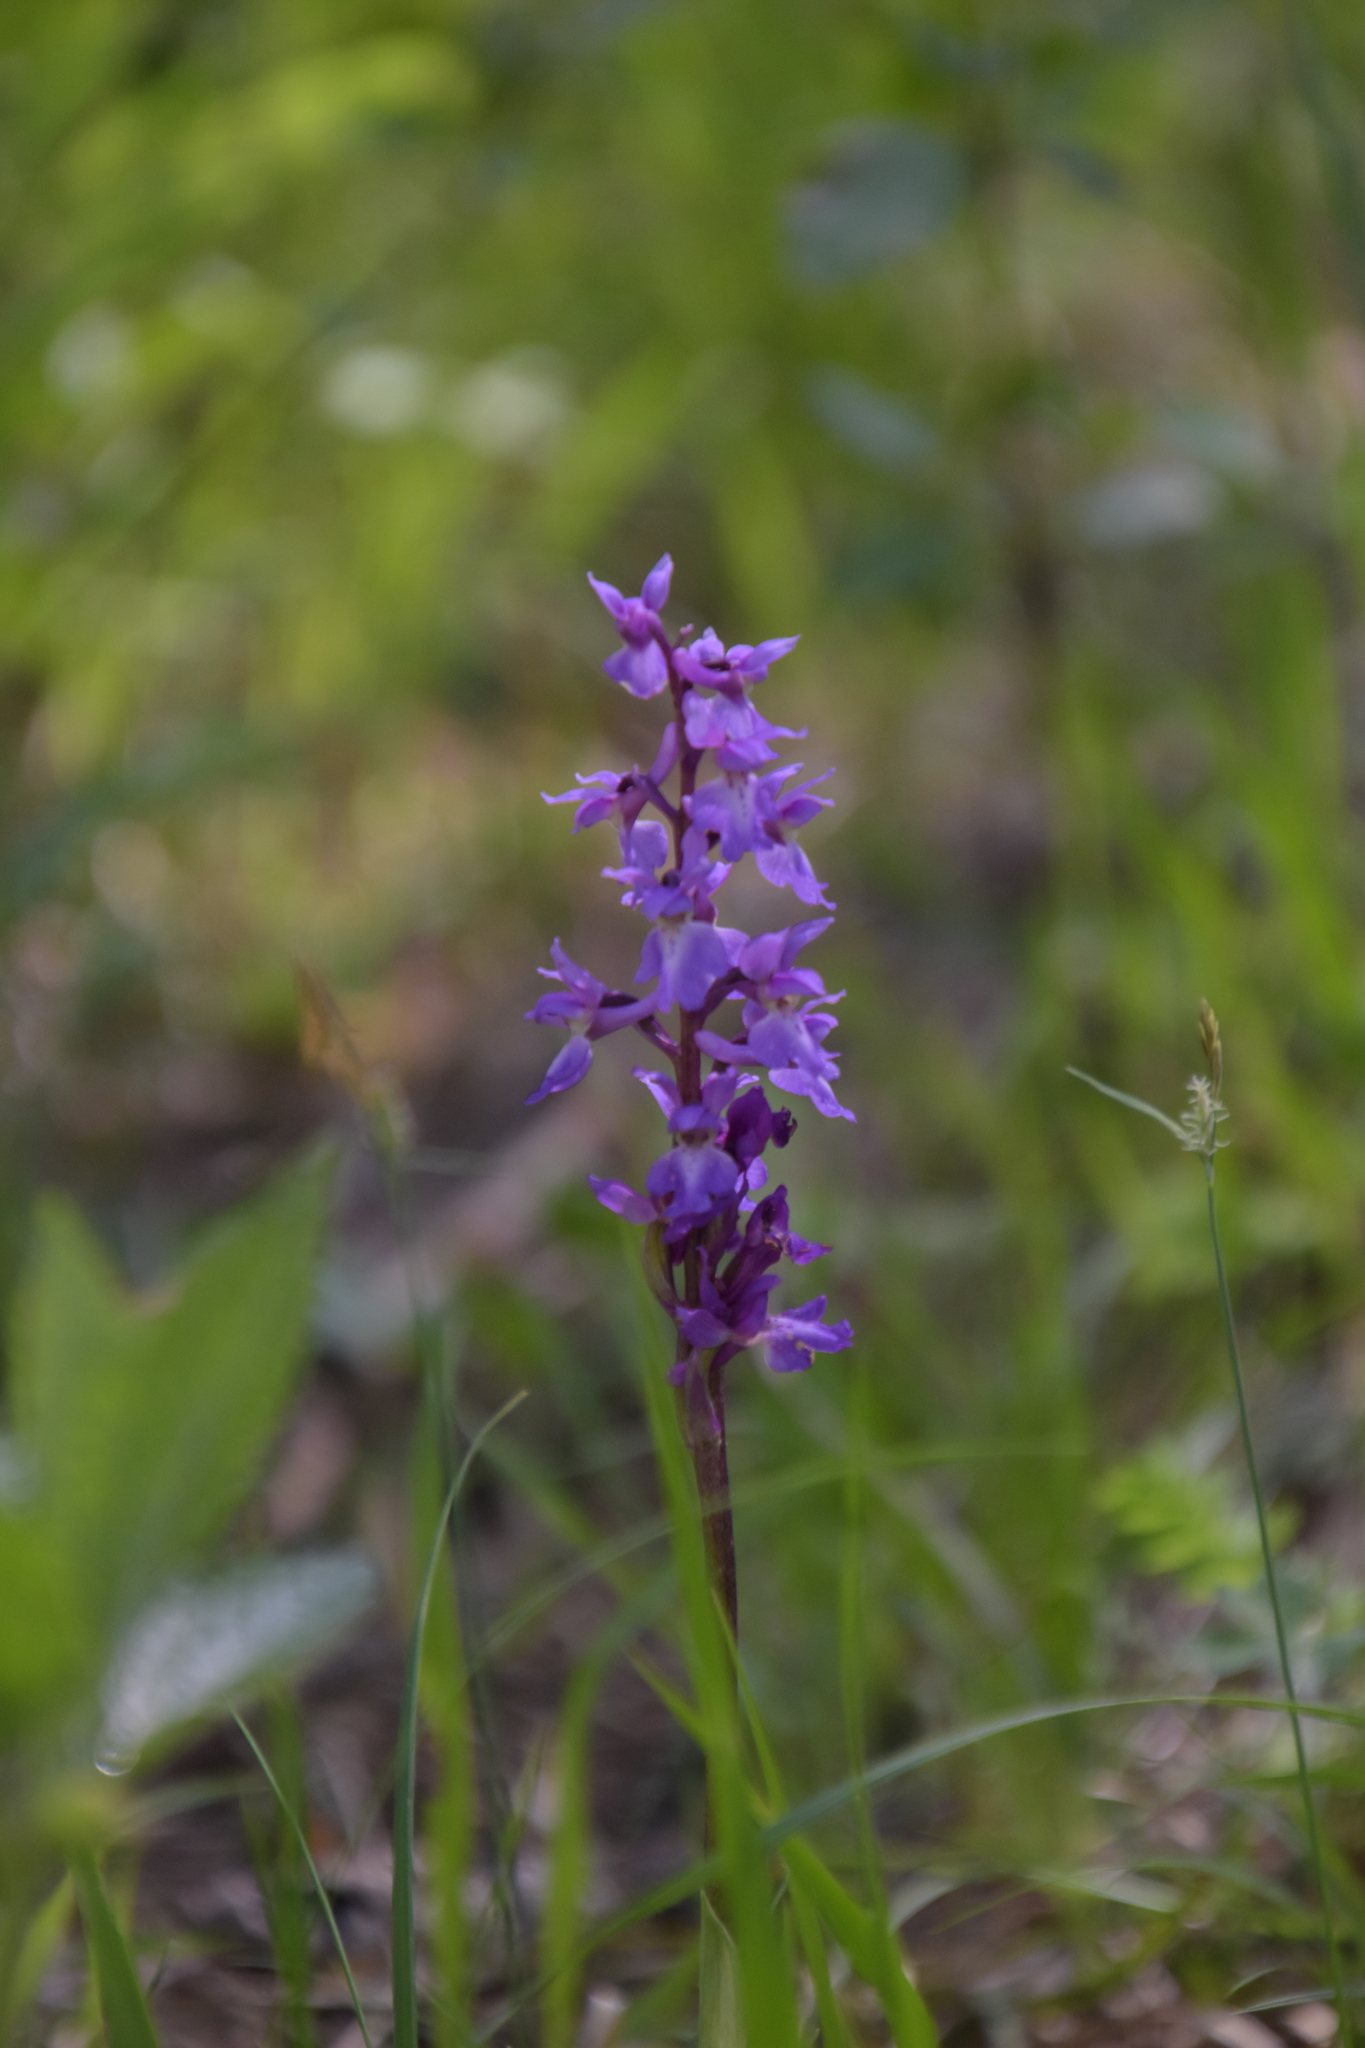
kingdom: Plantae
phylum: Tracheophyta
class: Liliopsida
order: Asparagales
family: Orchidaceae
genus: Orchis
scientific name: Orchis mascula
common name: Early-purple orchid
